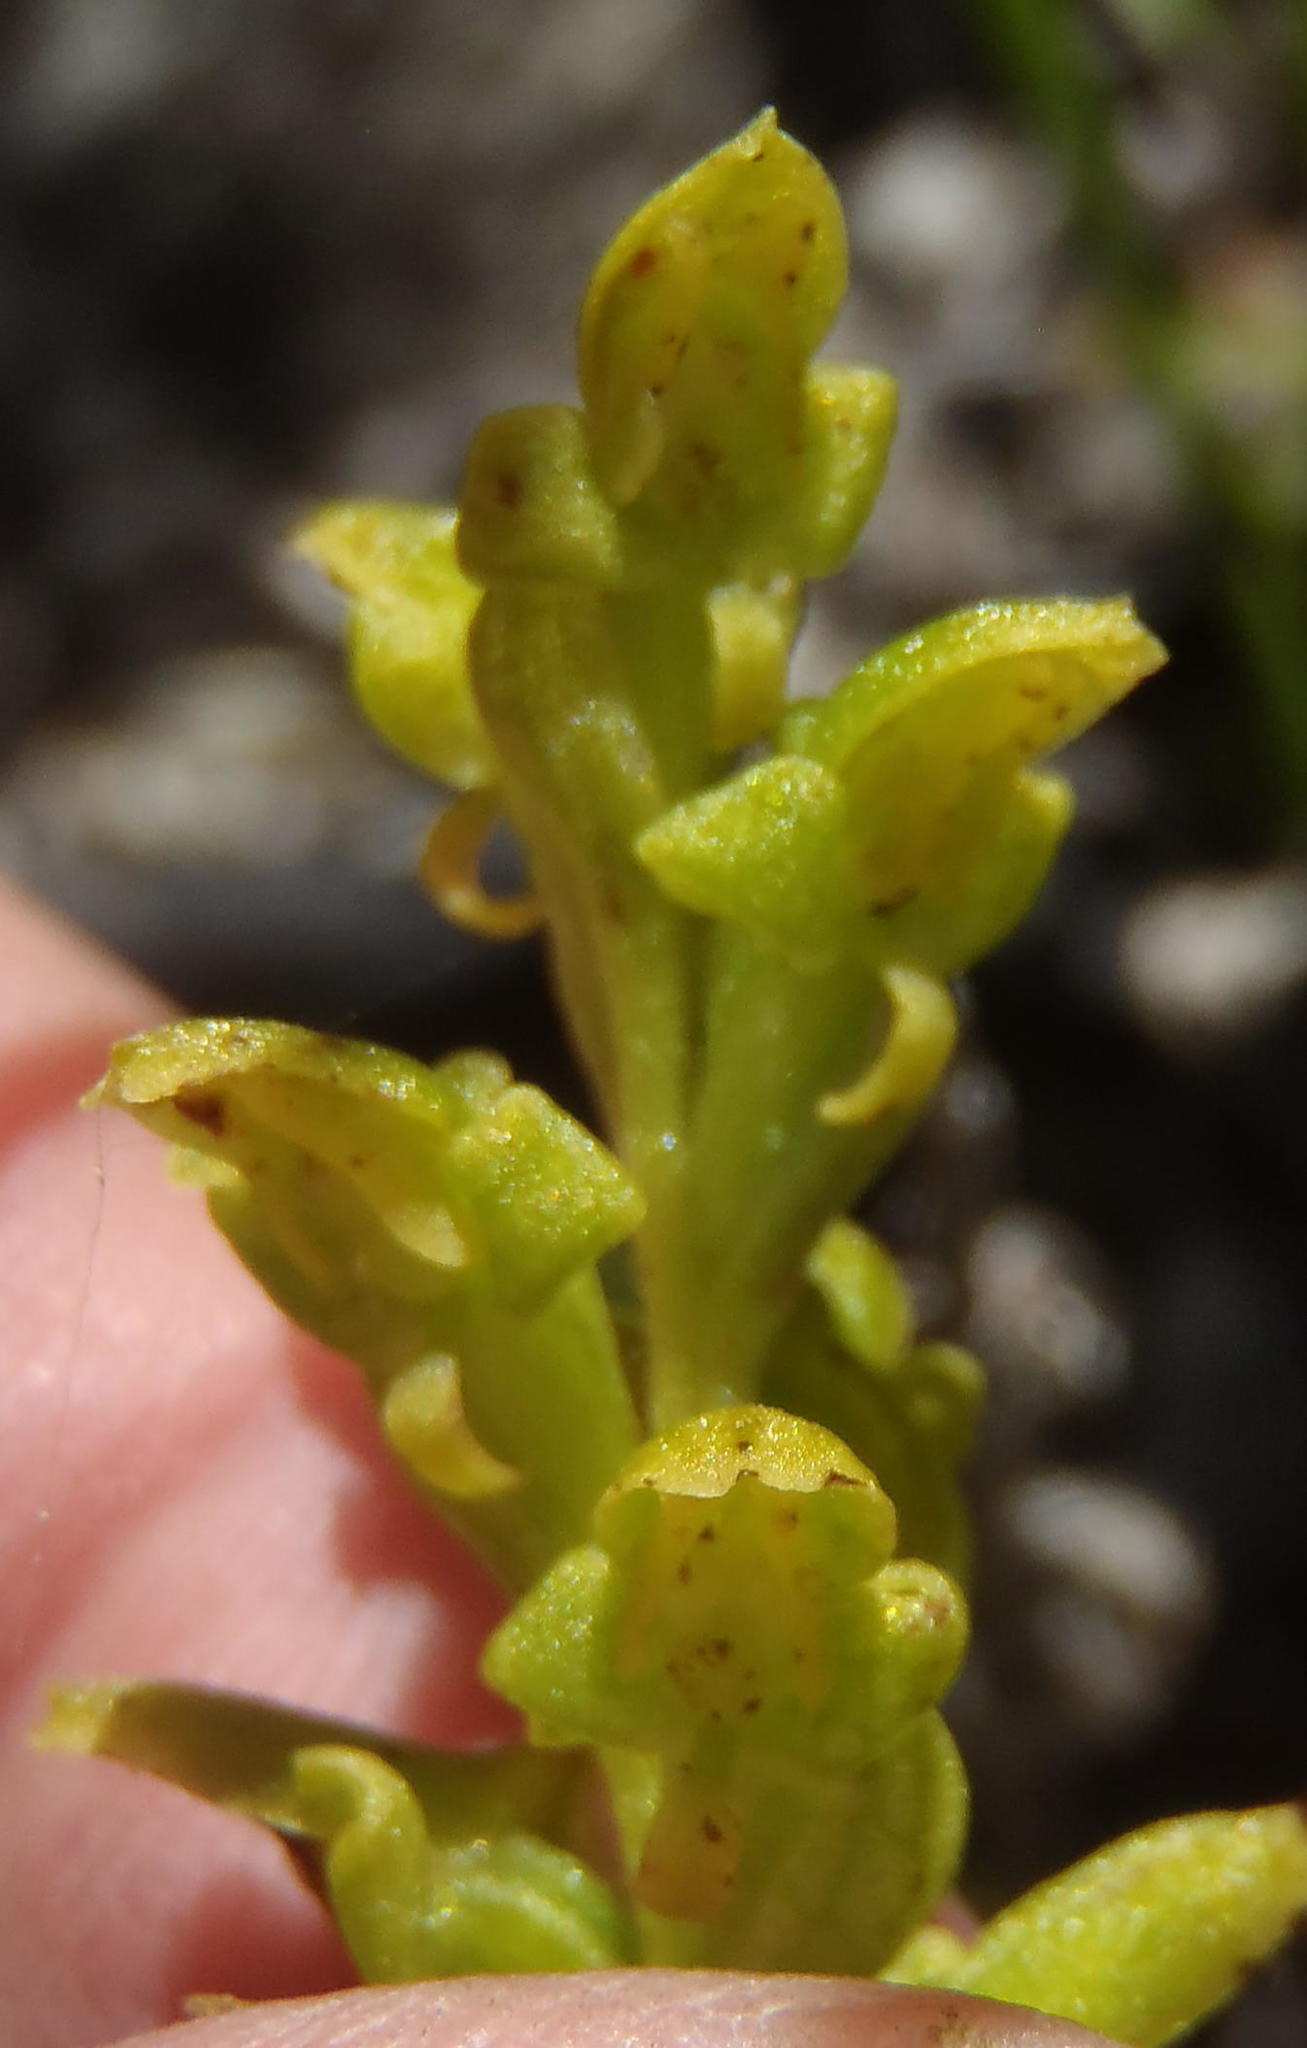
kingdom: Plantae
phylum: Tracheophyta
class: Liliopsida
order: Asparagales
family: Orchidaceae
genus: Disa
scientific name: Disa cylindrica
